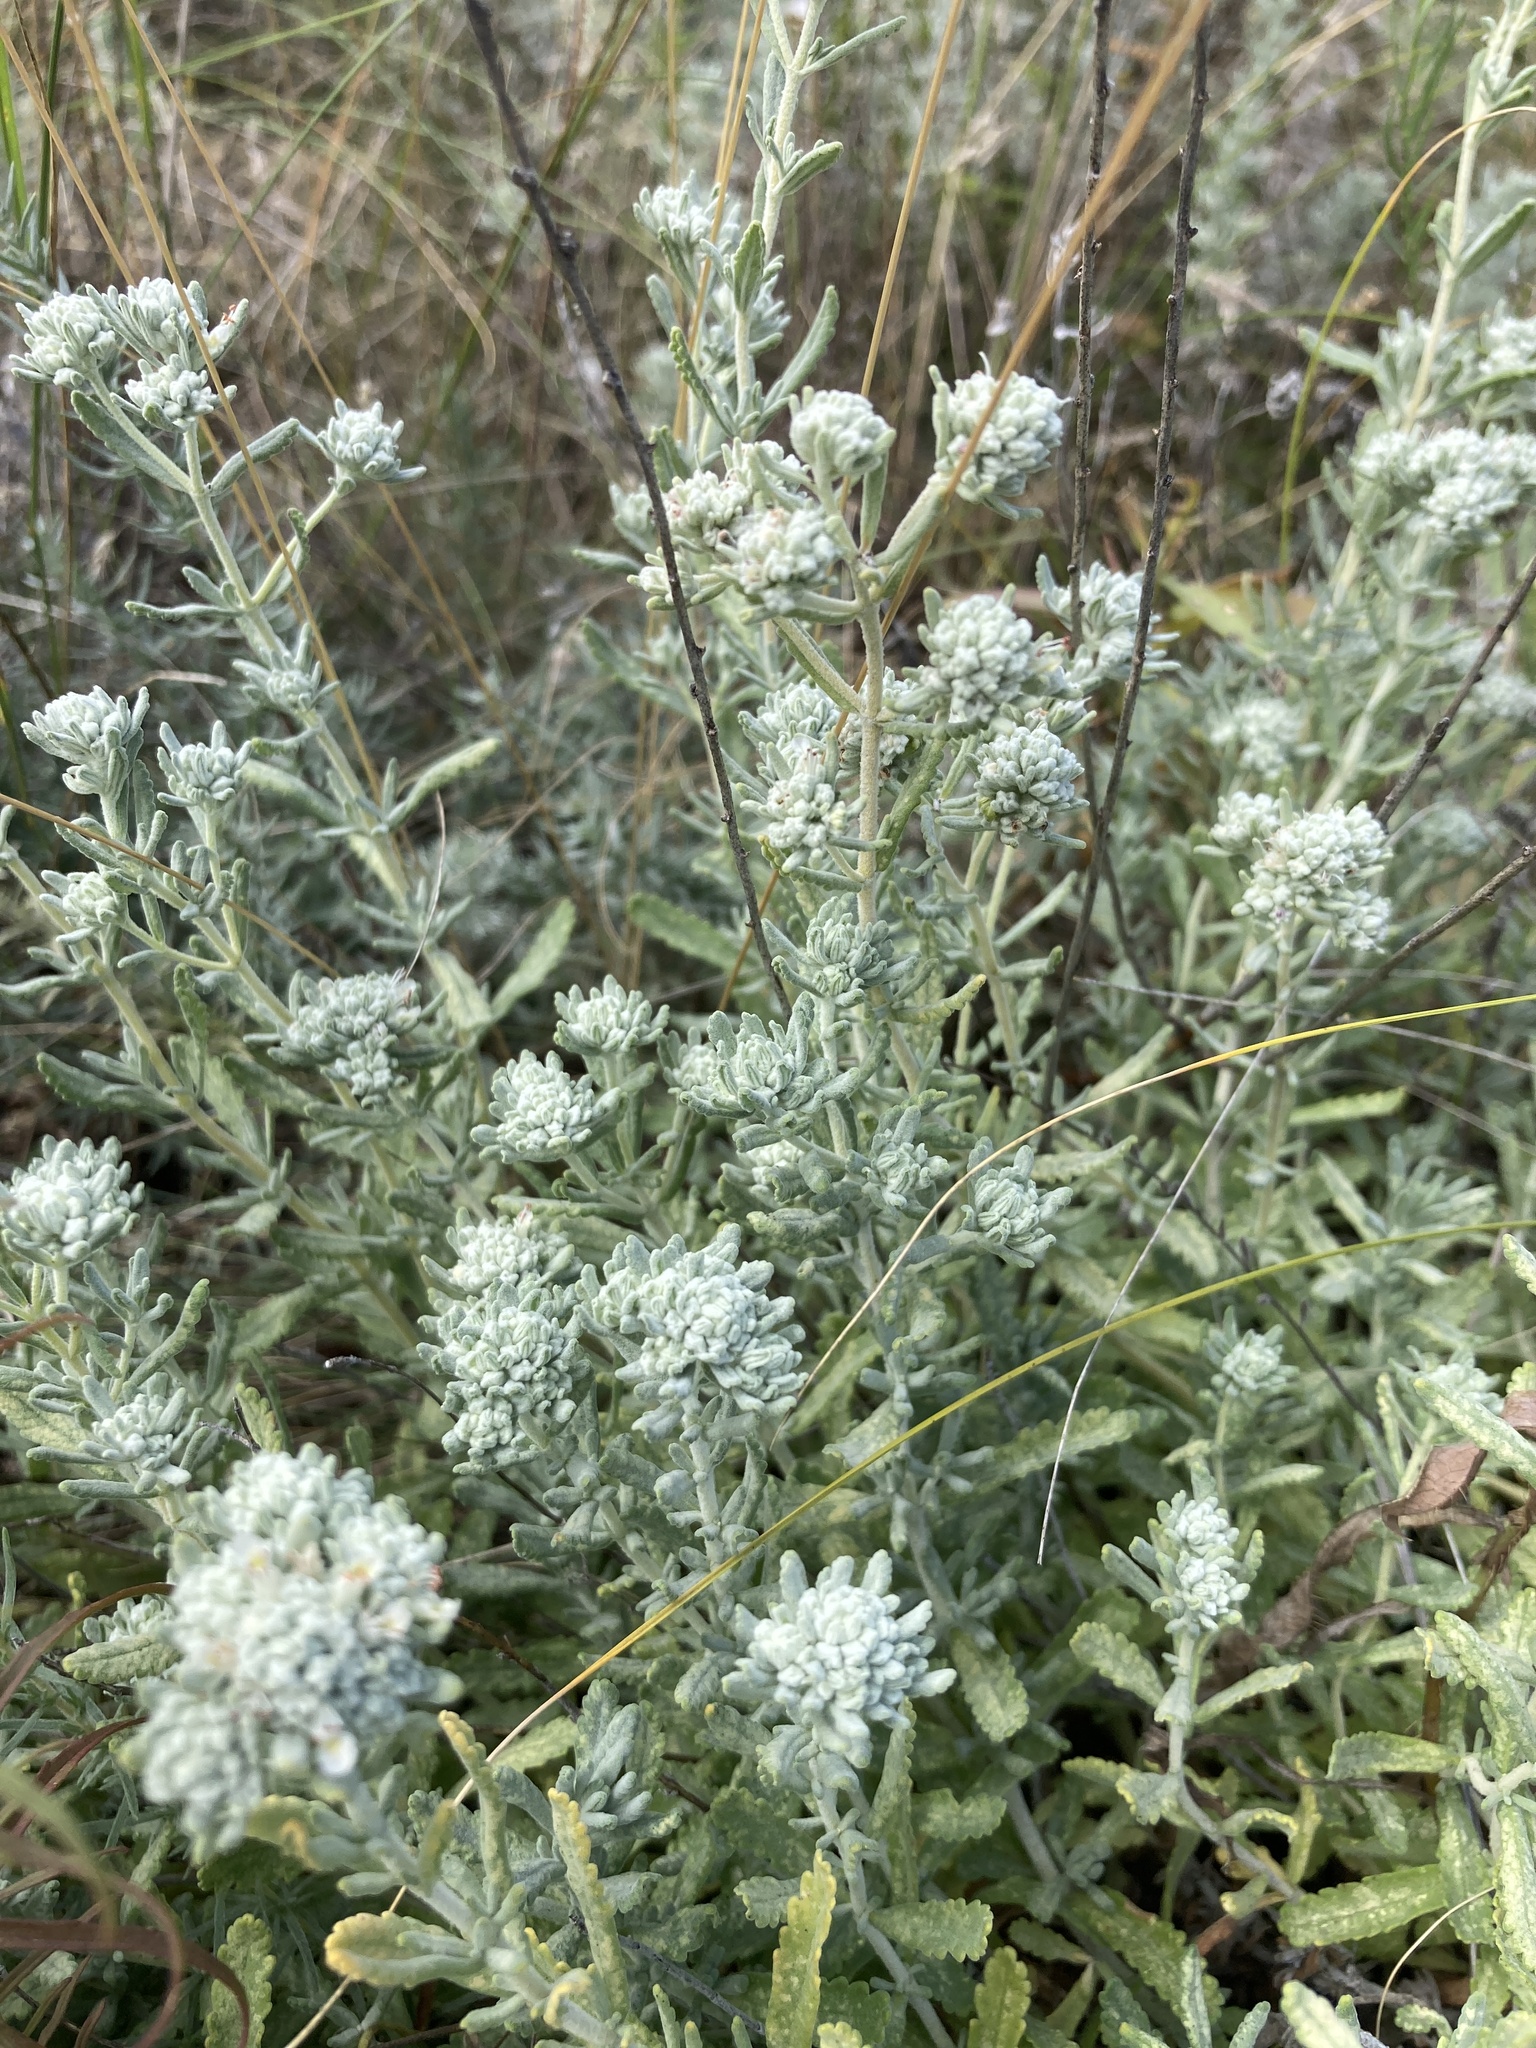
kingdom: Plantae
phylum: Tracheophyta
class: Magnoliopsida
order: Lamiales
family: Lamiaceae
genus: Teucrium
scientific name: Teucrium polium
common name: Poley
